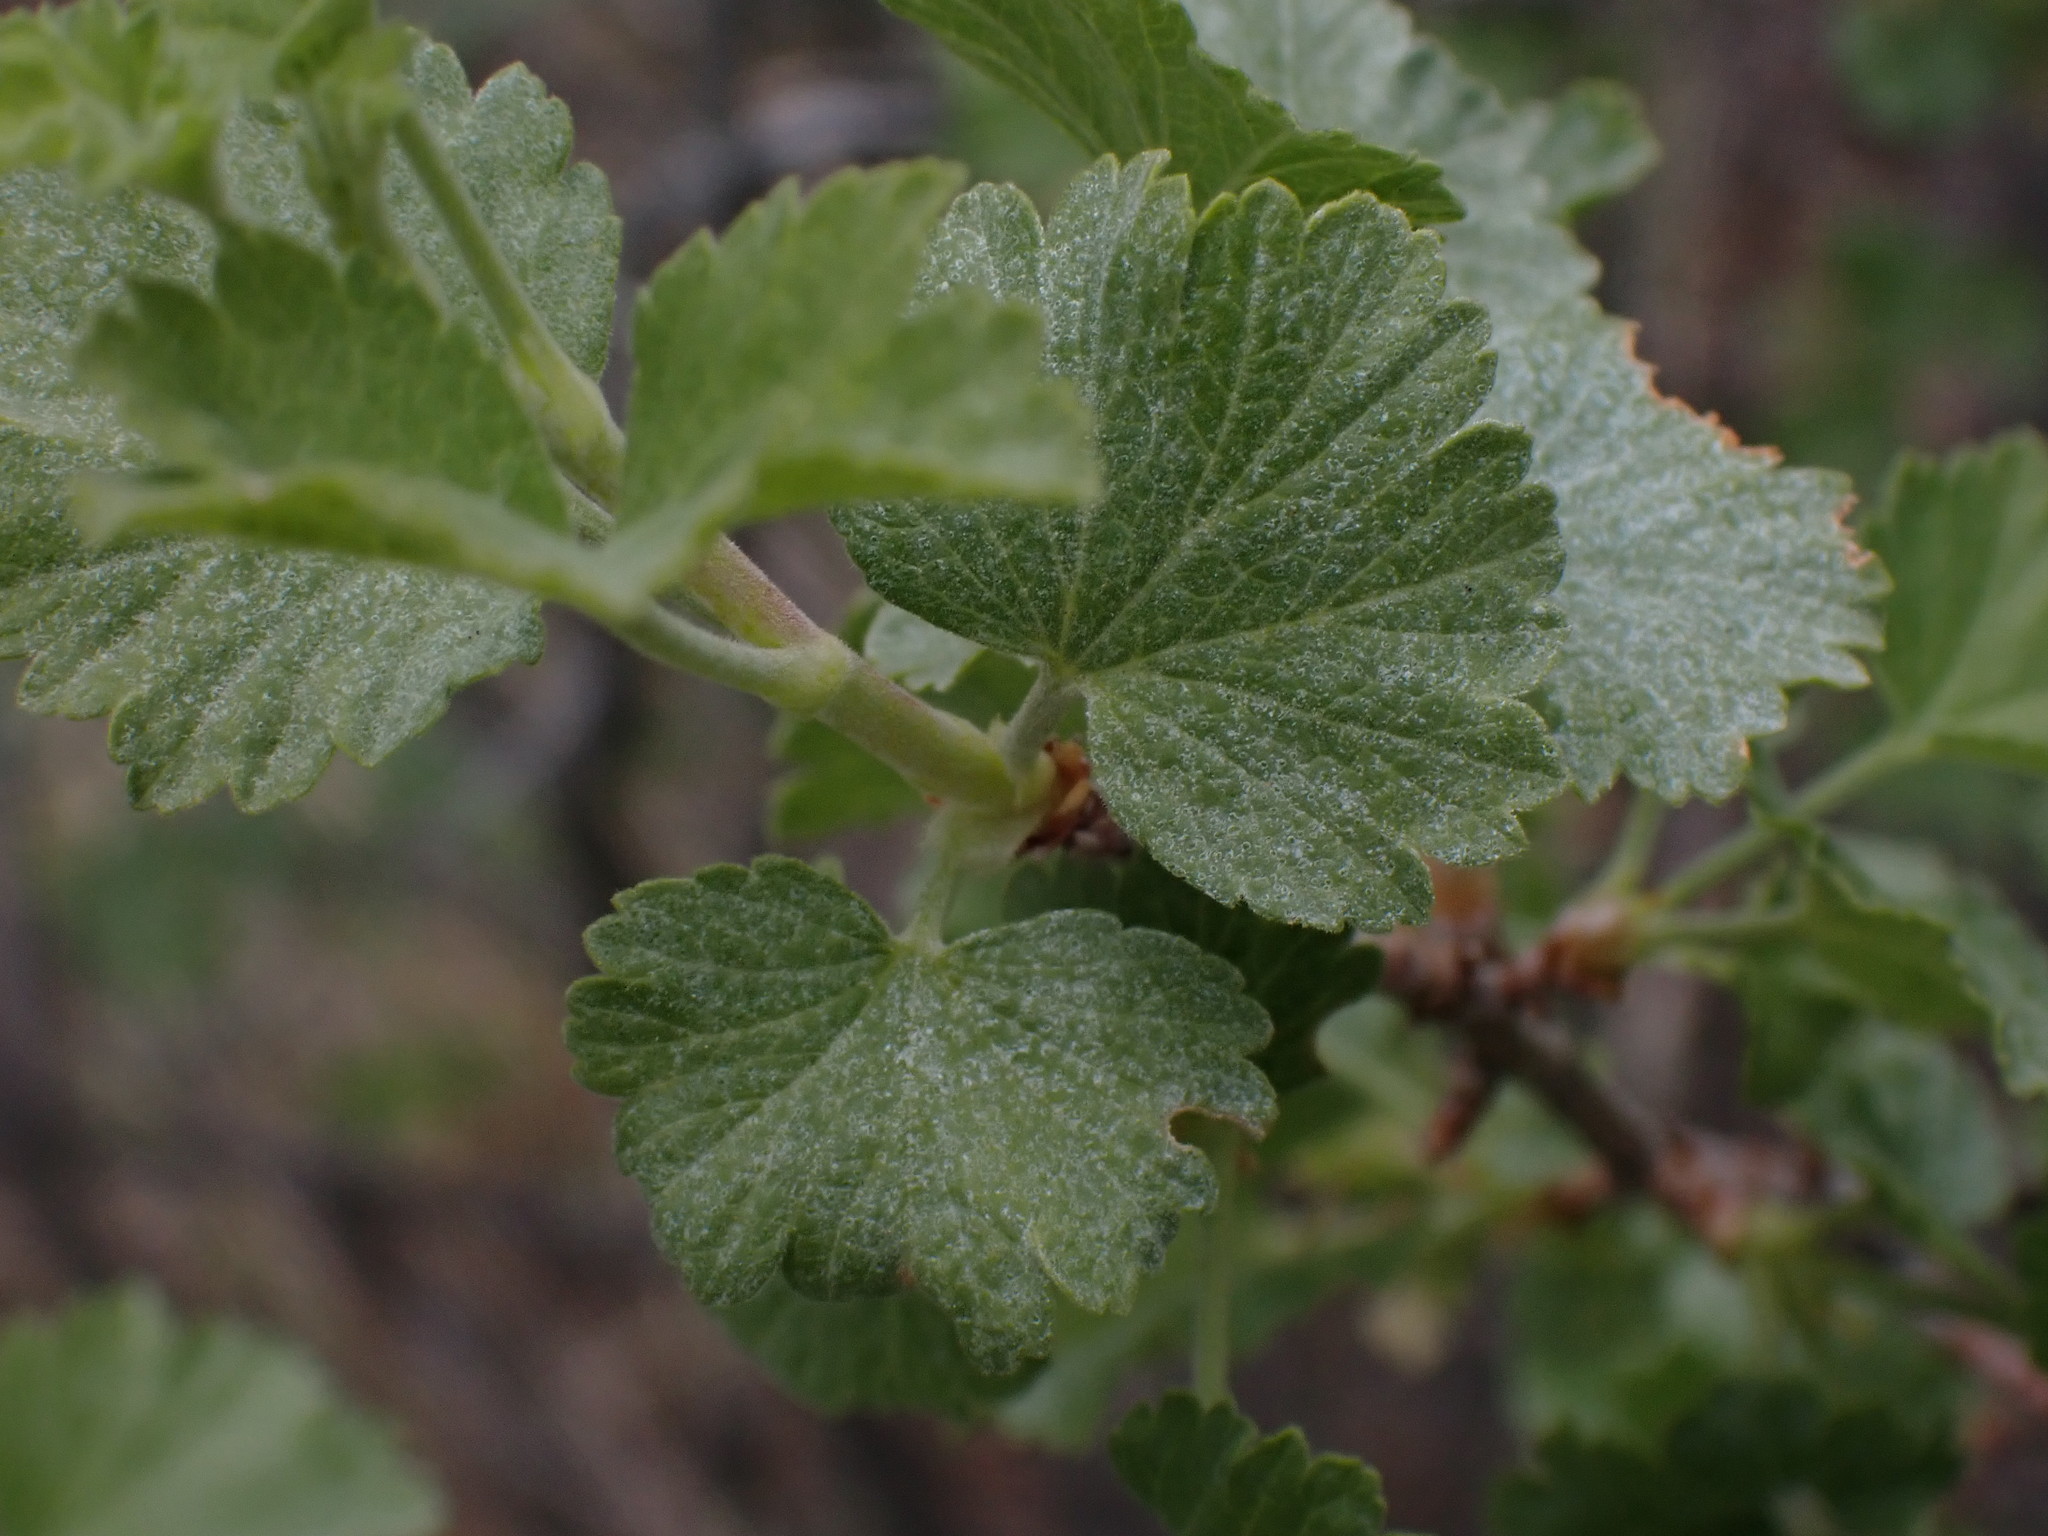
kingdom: Plantae
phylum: Tracheophyta
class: Magnoliopsida
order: Saxifragales
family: Grossulariaceae
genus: Ribes
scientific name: Ribes cereum
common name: Wax currant
